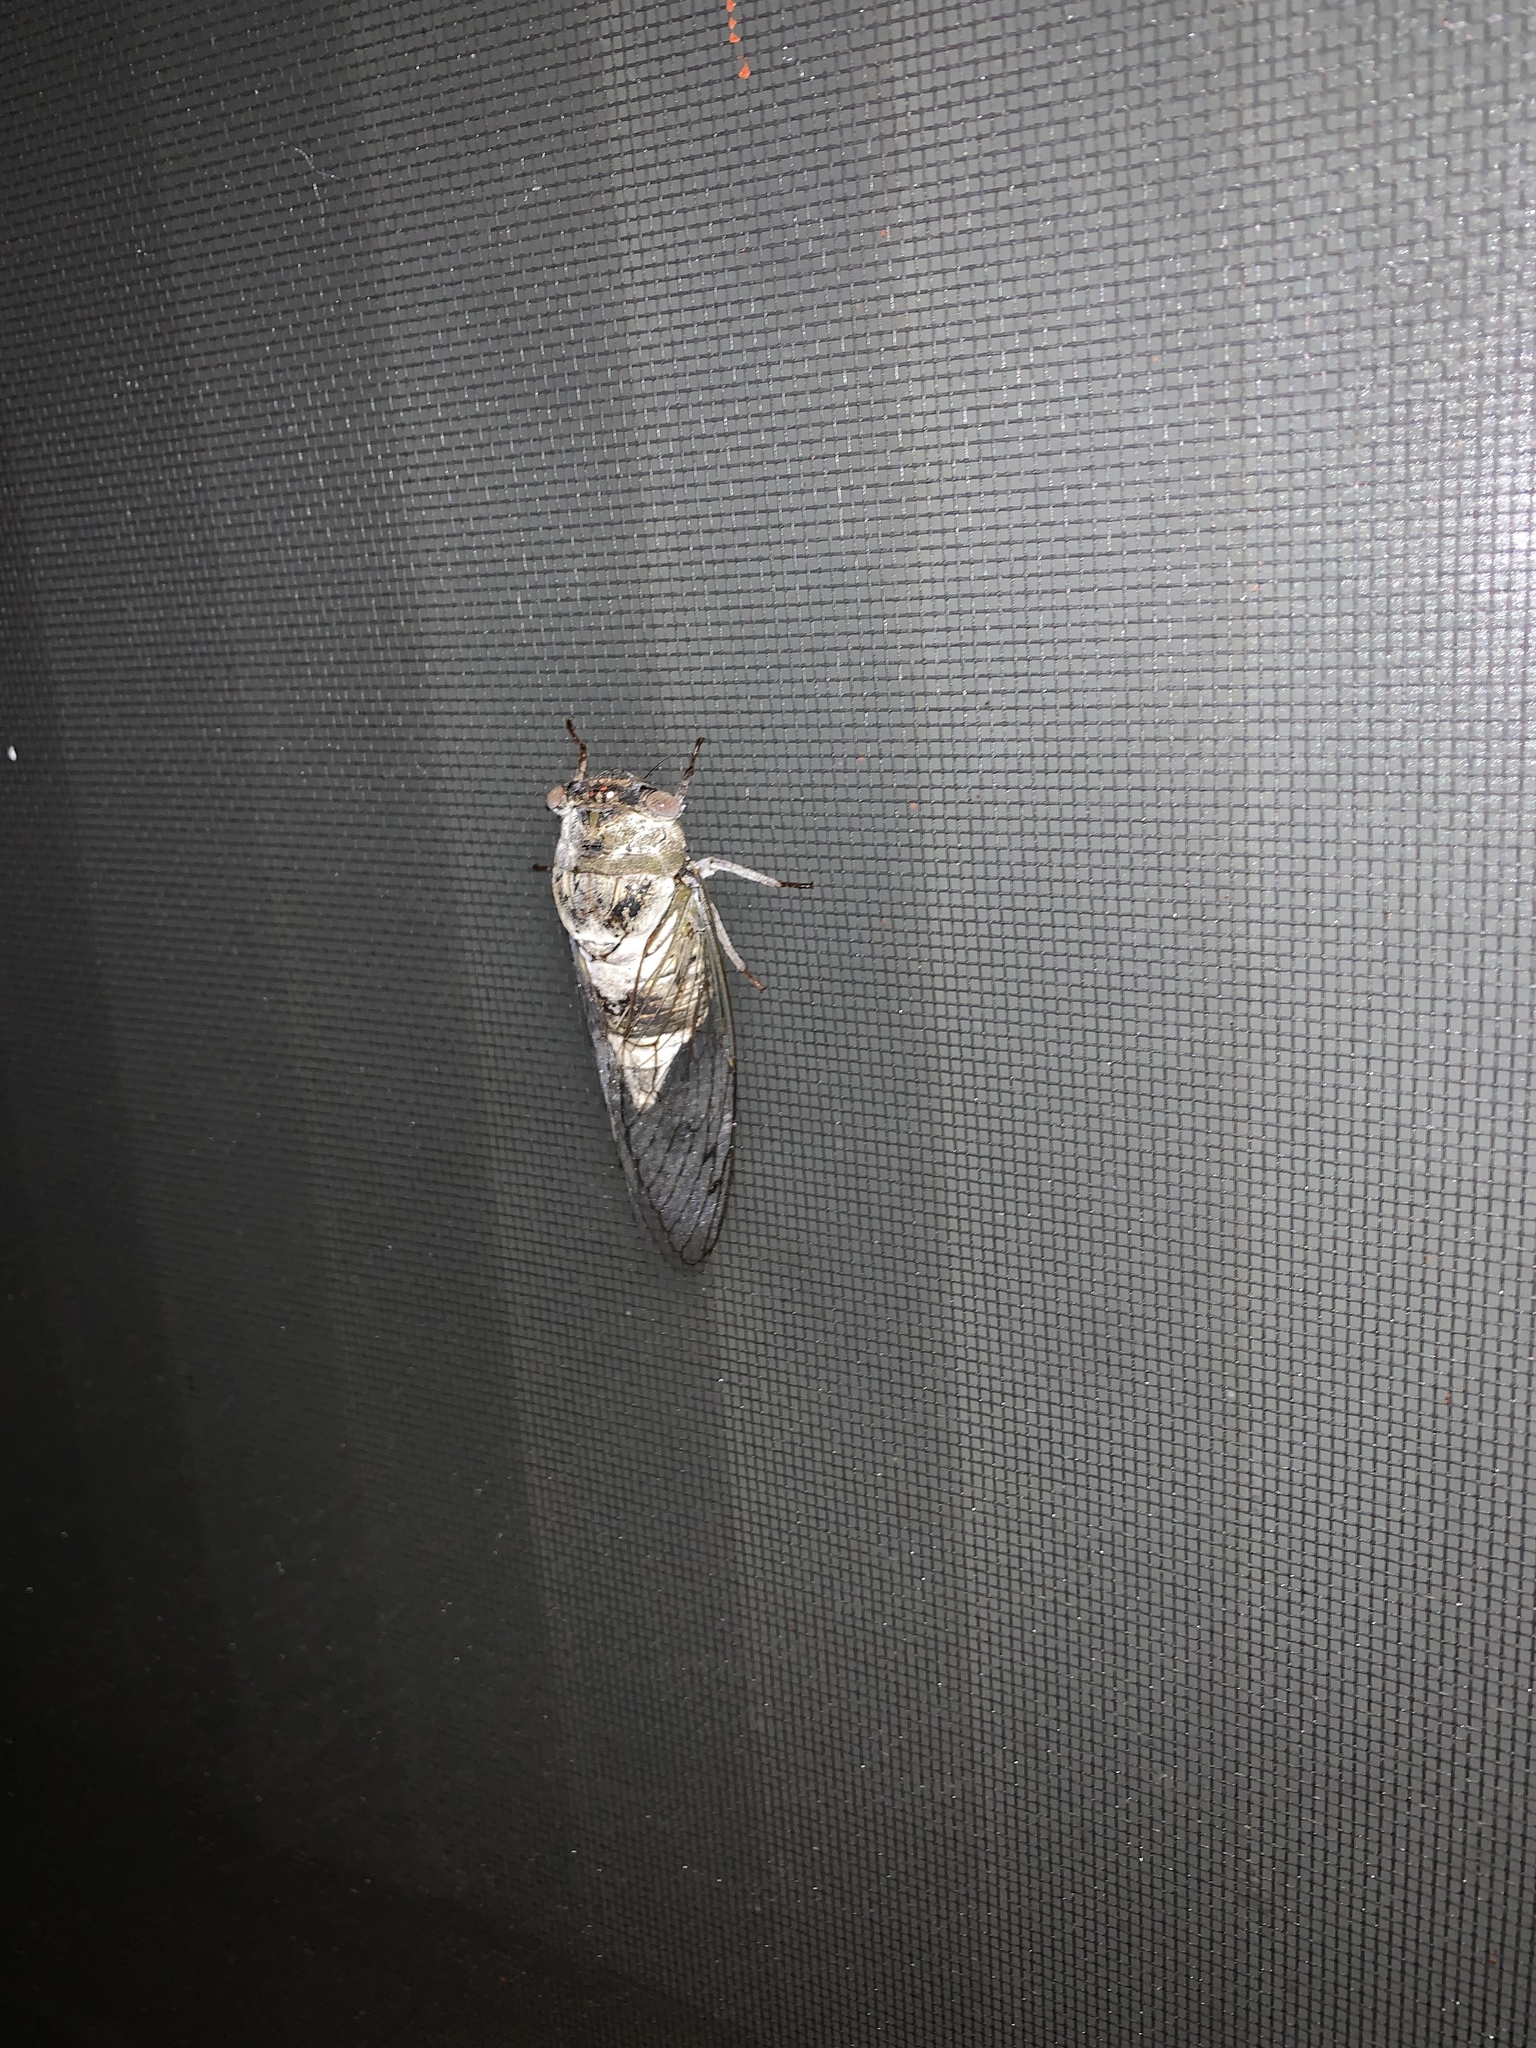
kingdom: Animalia
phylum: Arthropoda
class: Insecta
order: Hemiptera
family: Cicadidae
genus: Diceroprocta
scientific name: Diceroprocta grossa
